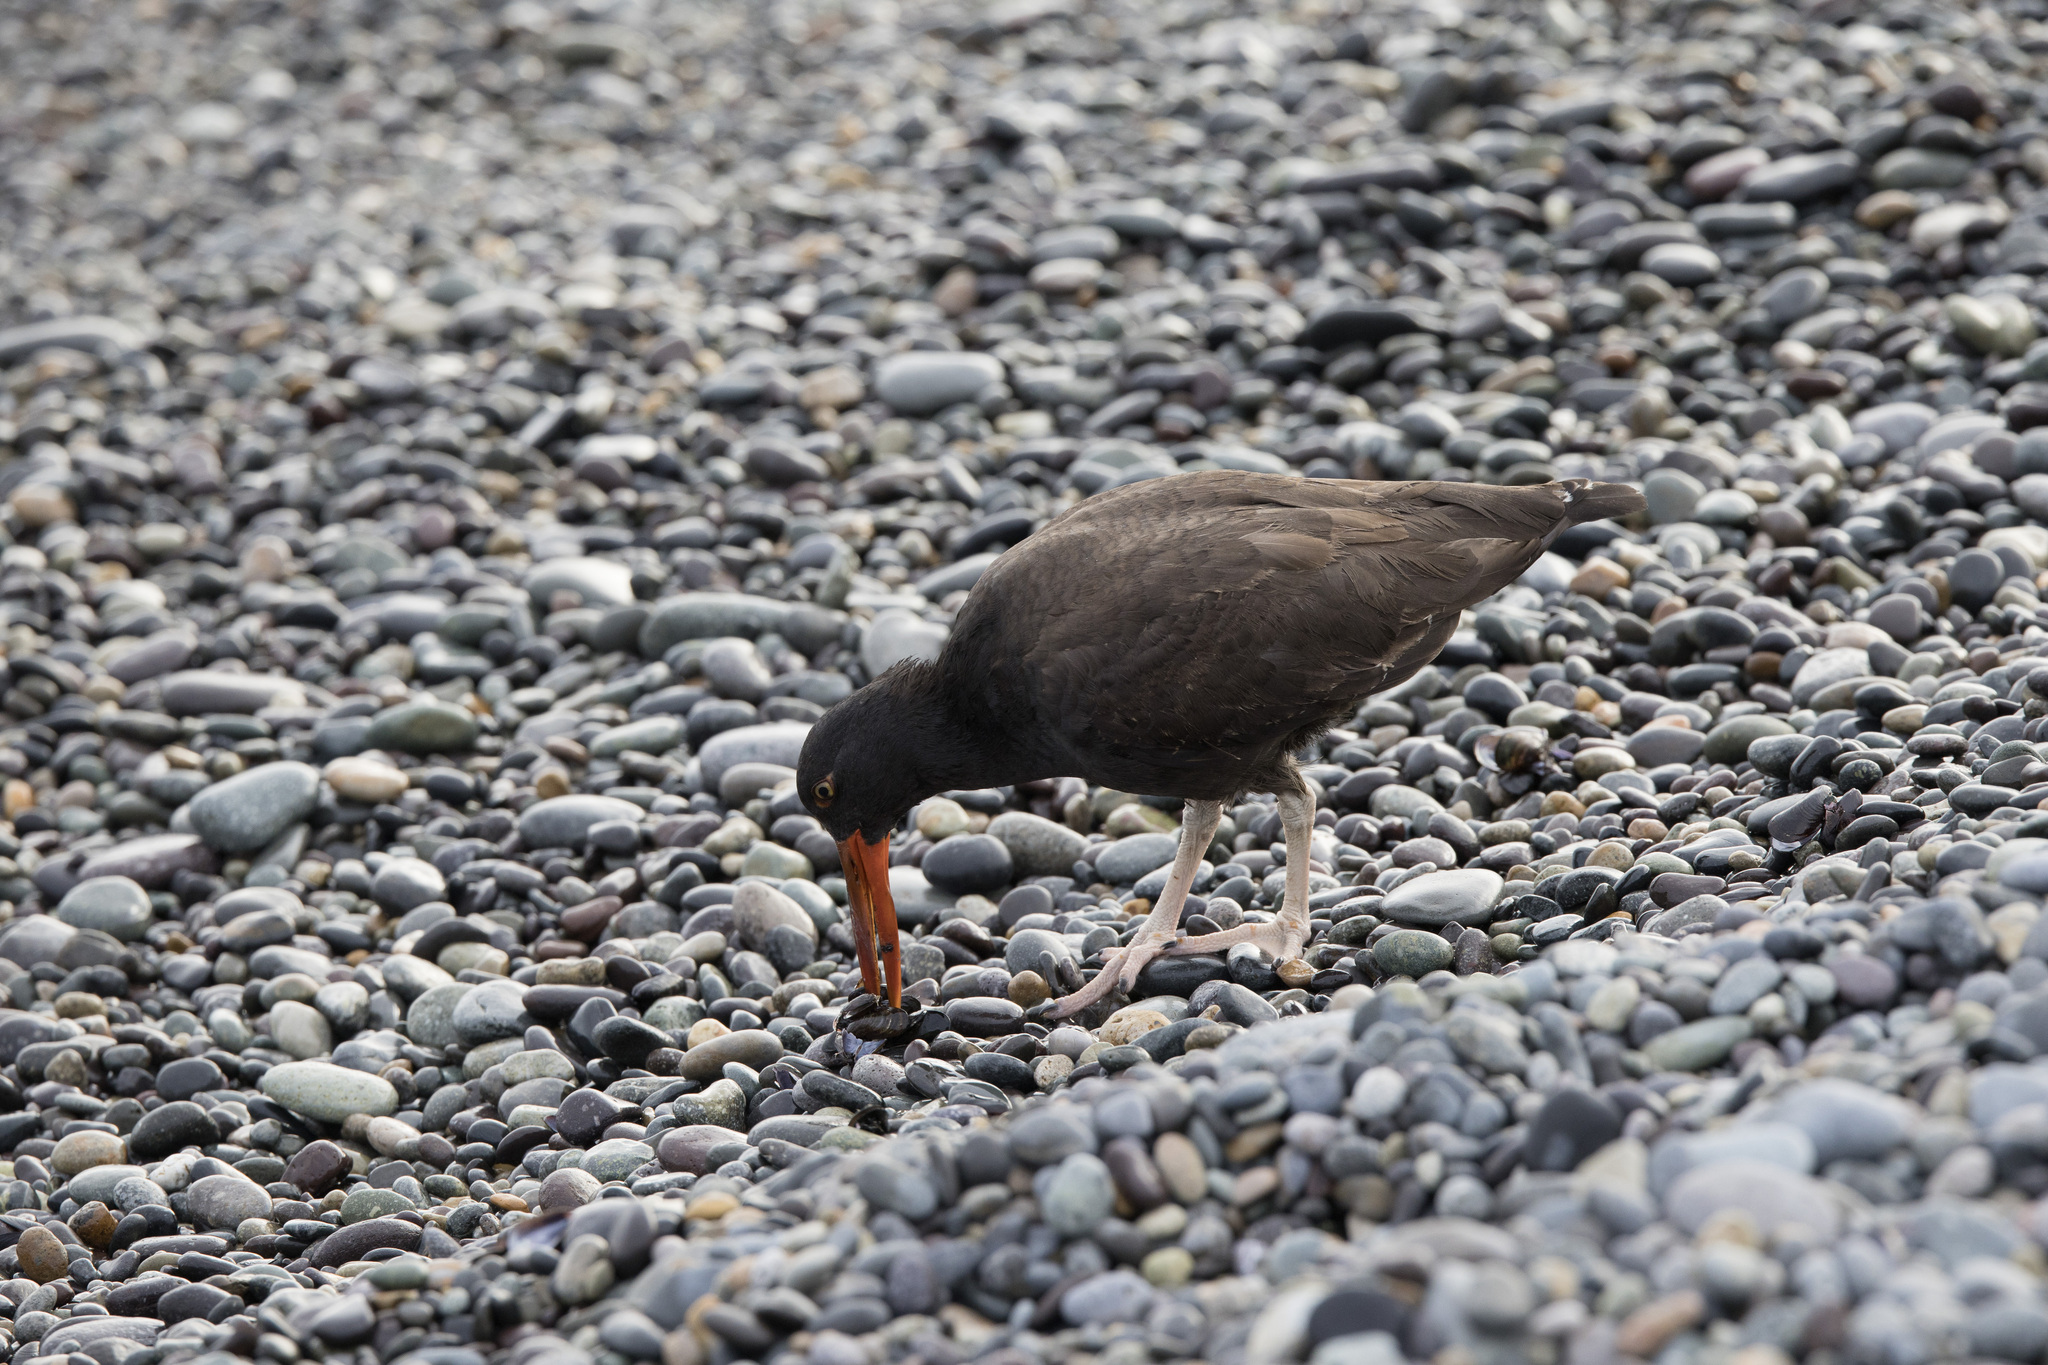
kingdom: Animalia
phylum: Chordata
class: Aves
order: Charadriiformes
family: Haematopodidae
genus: Haematopus
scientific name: Haematopus ater
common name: Blackish oystercatcher
